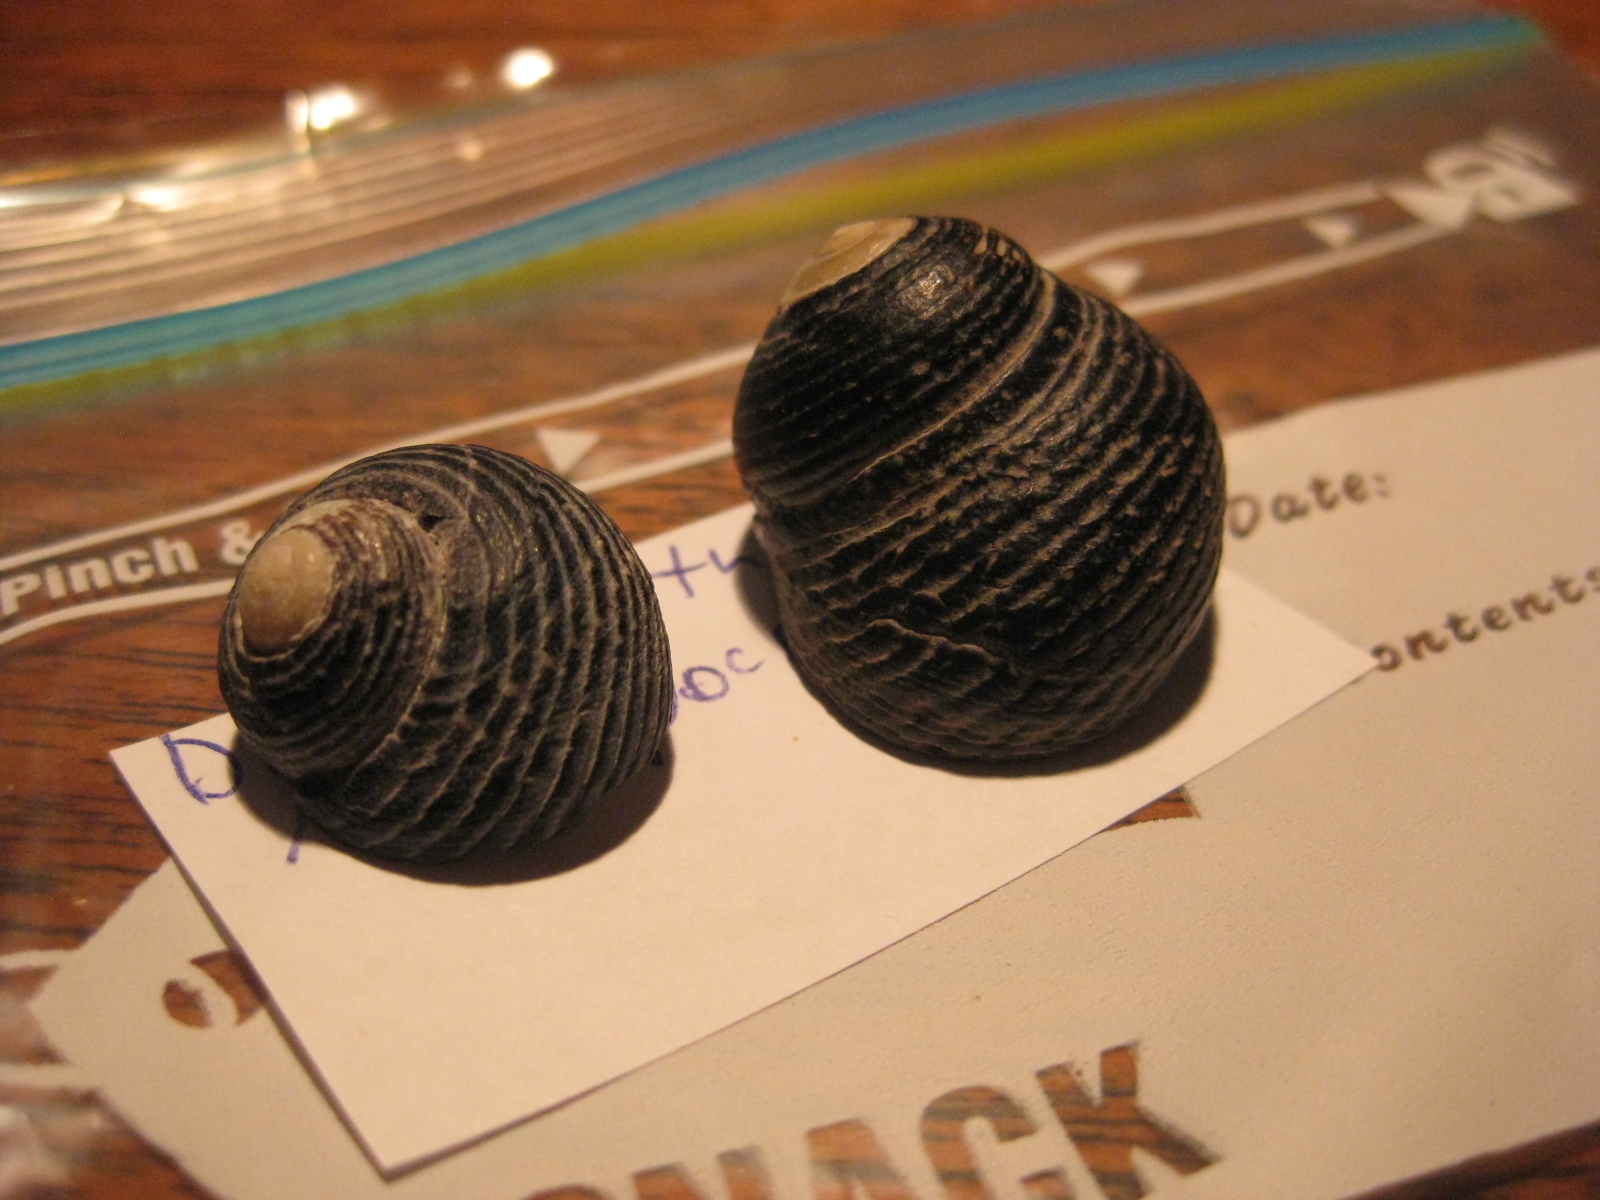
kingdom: Animalia
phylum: Mollusca
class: Gastropoda
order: Trochida
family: Trochidae
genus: Diloma
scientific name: Diloma zelandicum
